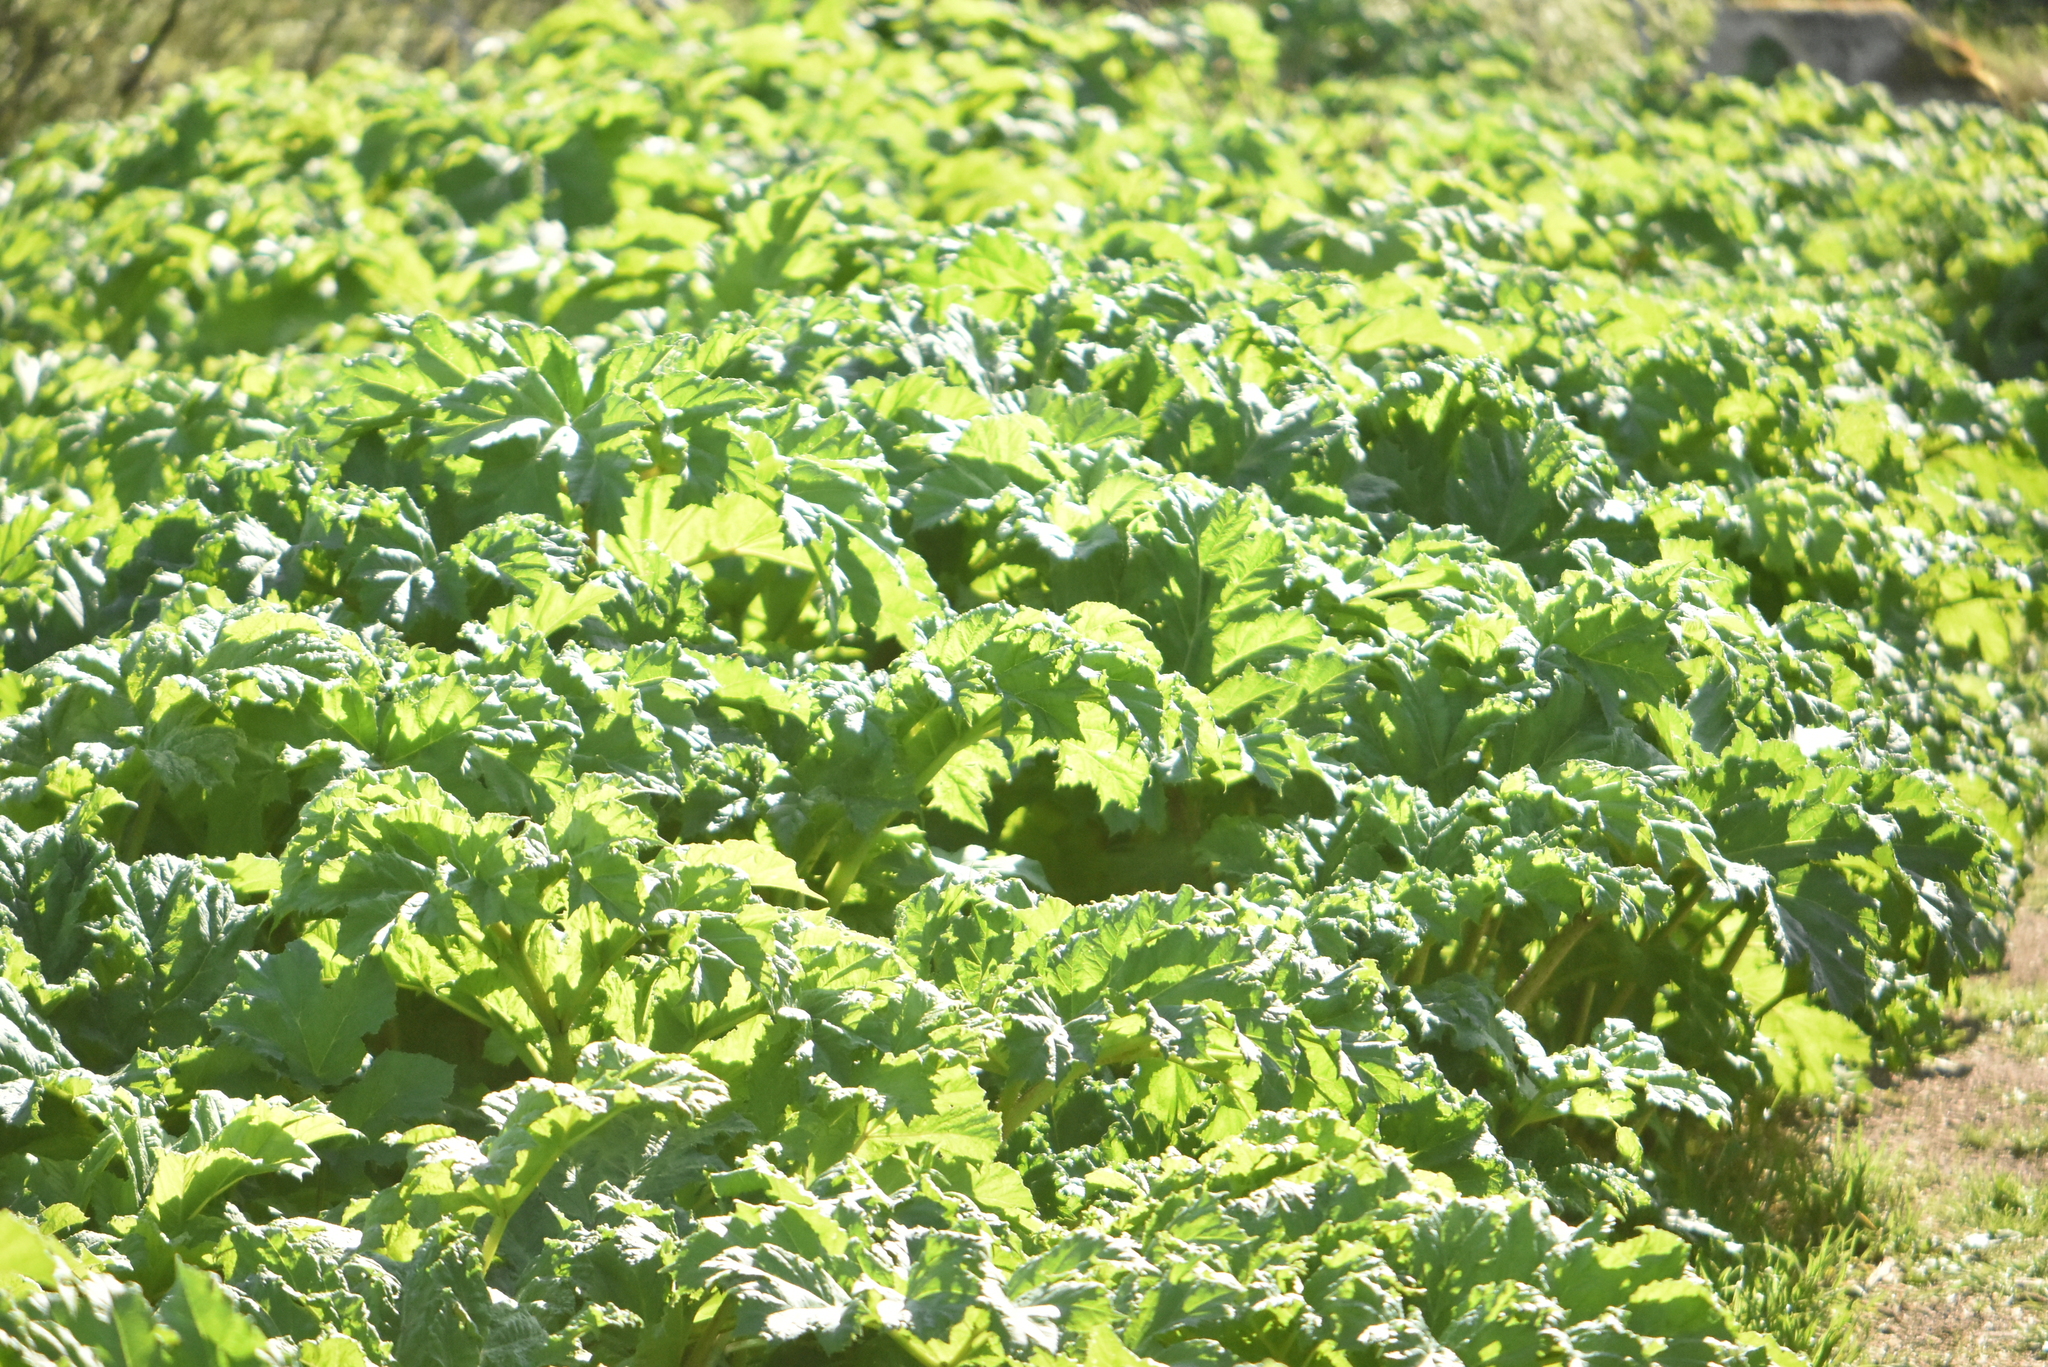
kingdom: Plantae
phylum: Tracheophyta
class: Magnoliopsida
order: Apiales
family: Apiaceae
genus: Heracleum
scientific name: Heracleum sosnowskyi
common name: Sosnowsky's hogweed
